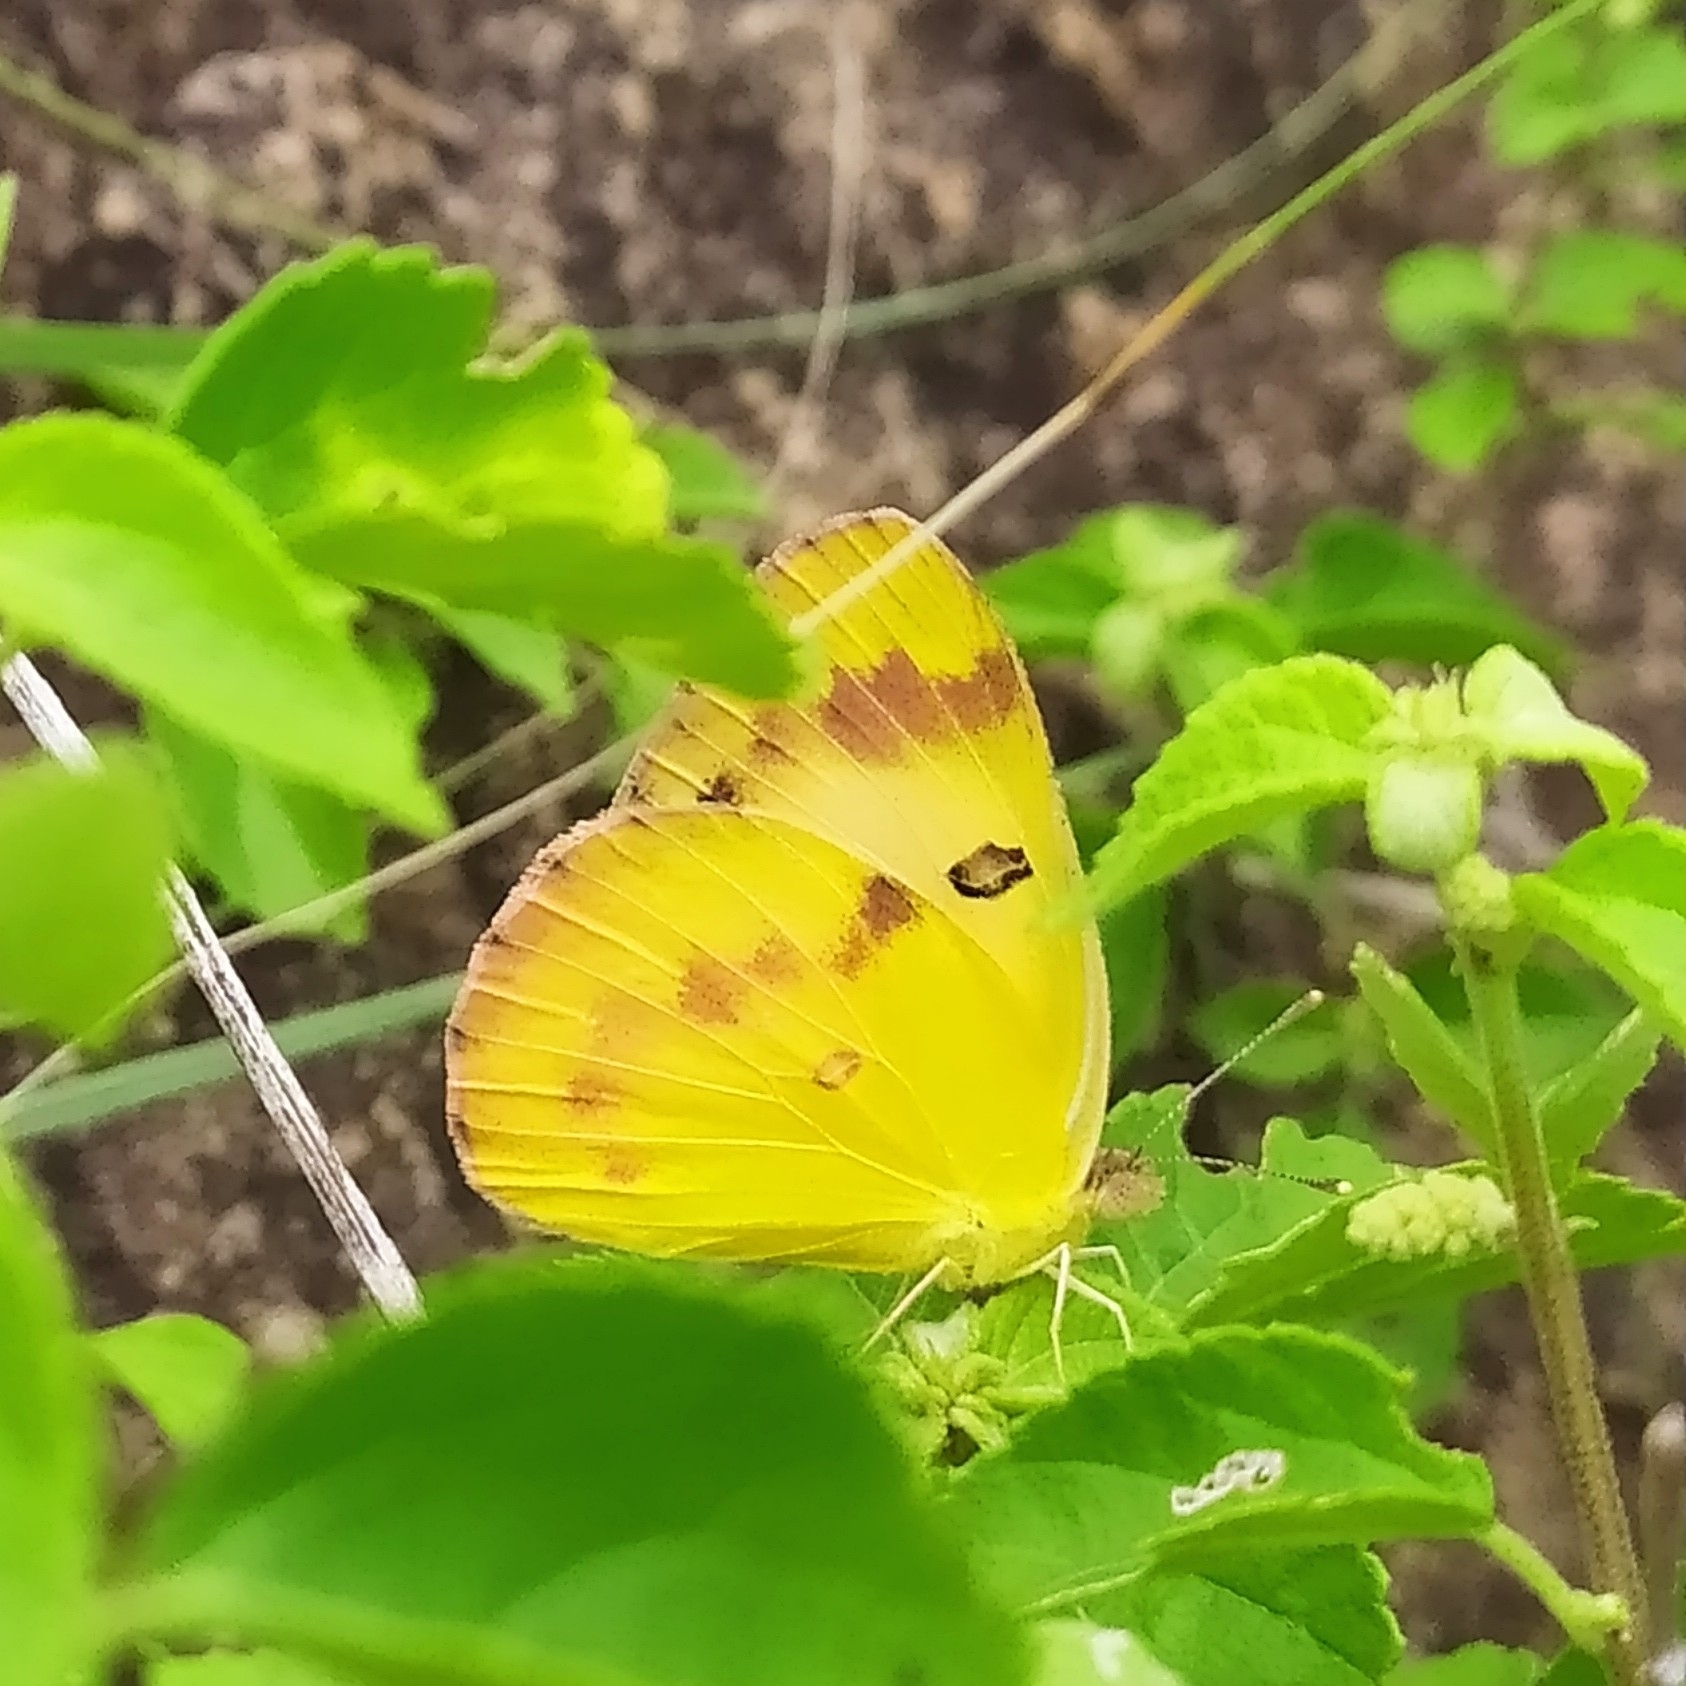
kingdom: Animalia
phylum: Arthropoda
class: Insecta
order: Lepidoptera
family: Pieridae
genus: Colotis
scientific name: Colotis fausta
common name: Large salmon arab
